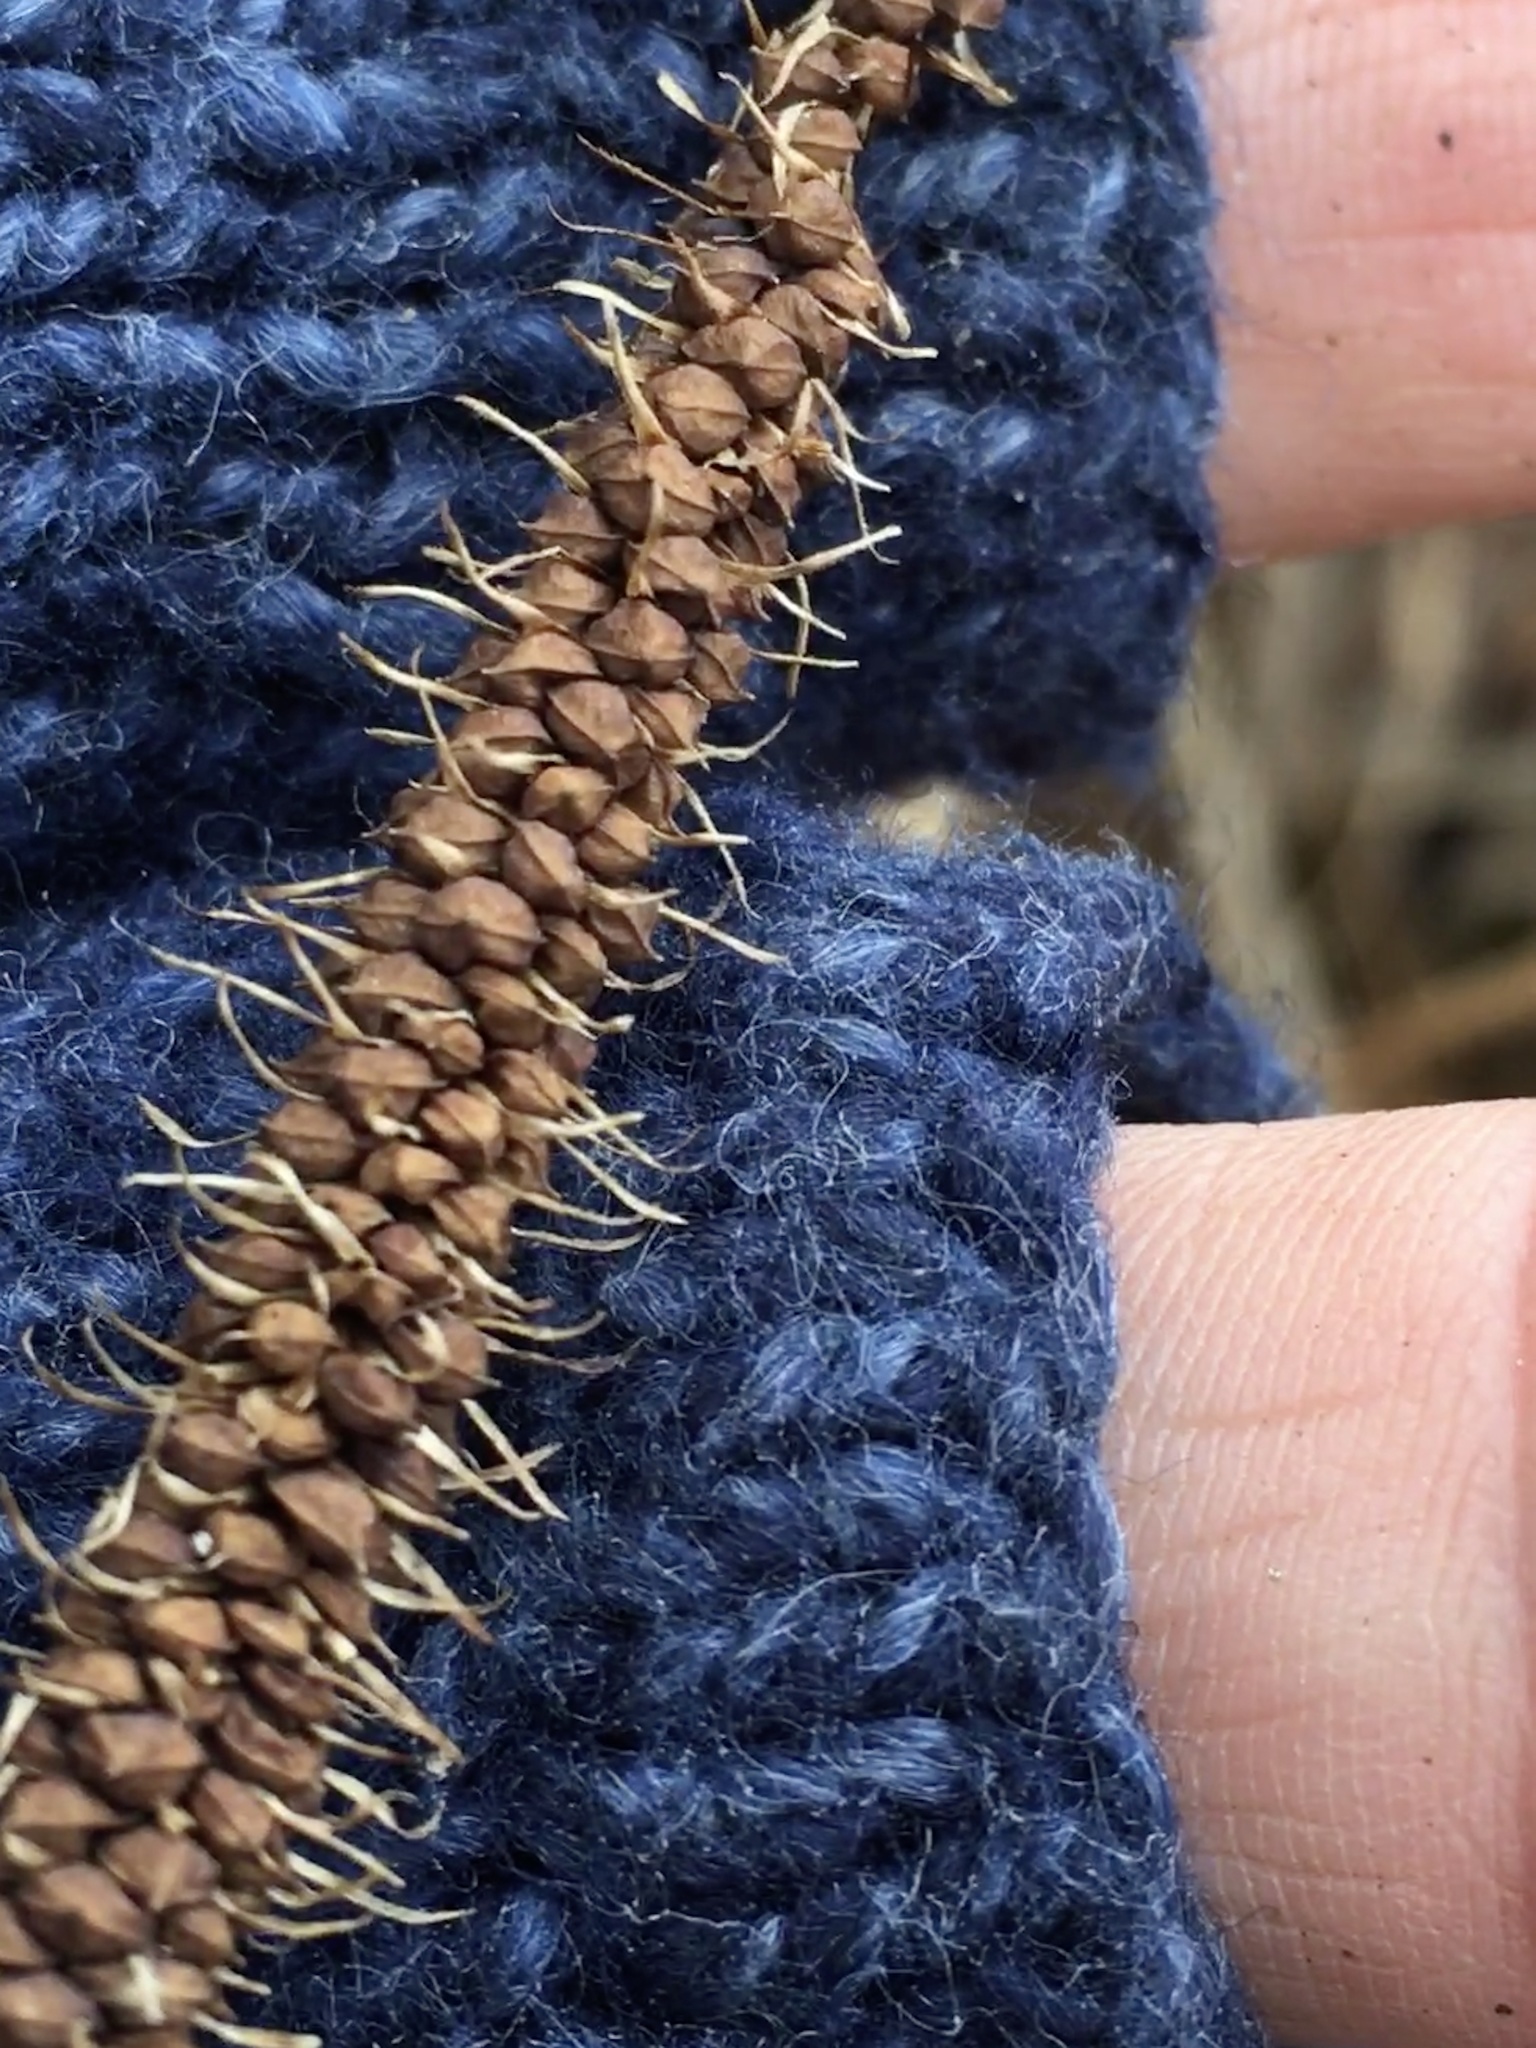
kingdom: Plantae
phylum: Tracheophyta
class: Liliopsida
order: Poales
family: Cyperaceae
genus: Carex
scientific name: Carex crinita
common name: Fringed sedge
